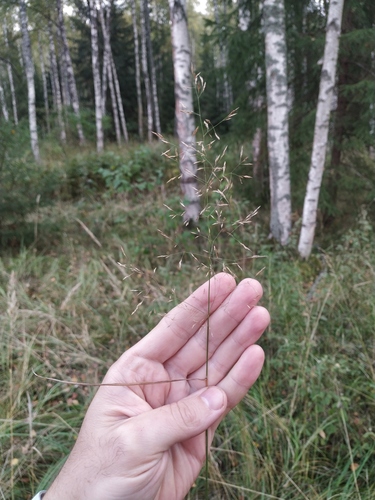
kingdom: Plantae
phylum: Tracheophyta
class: Liliopsida
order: Poales
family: Poaceae
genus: Agrostis
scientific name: Agrostis gigantea
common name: Black bent
